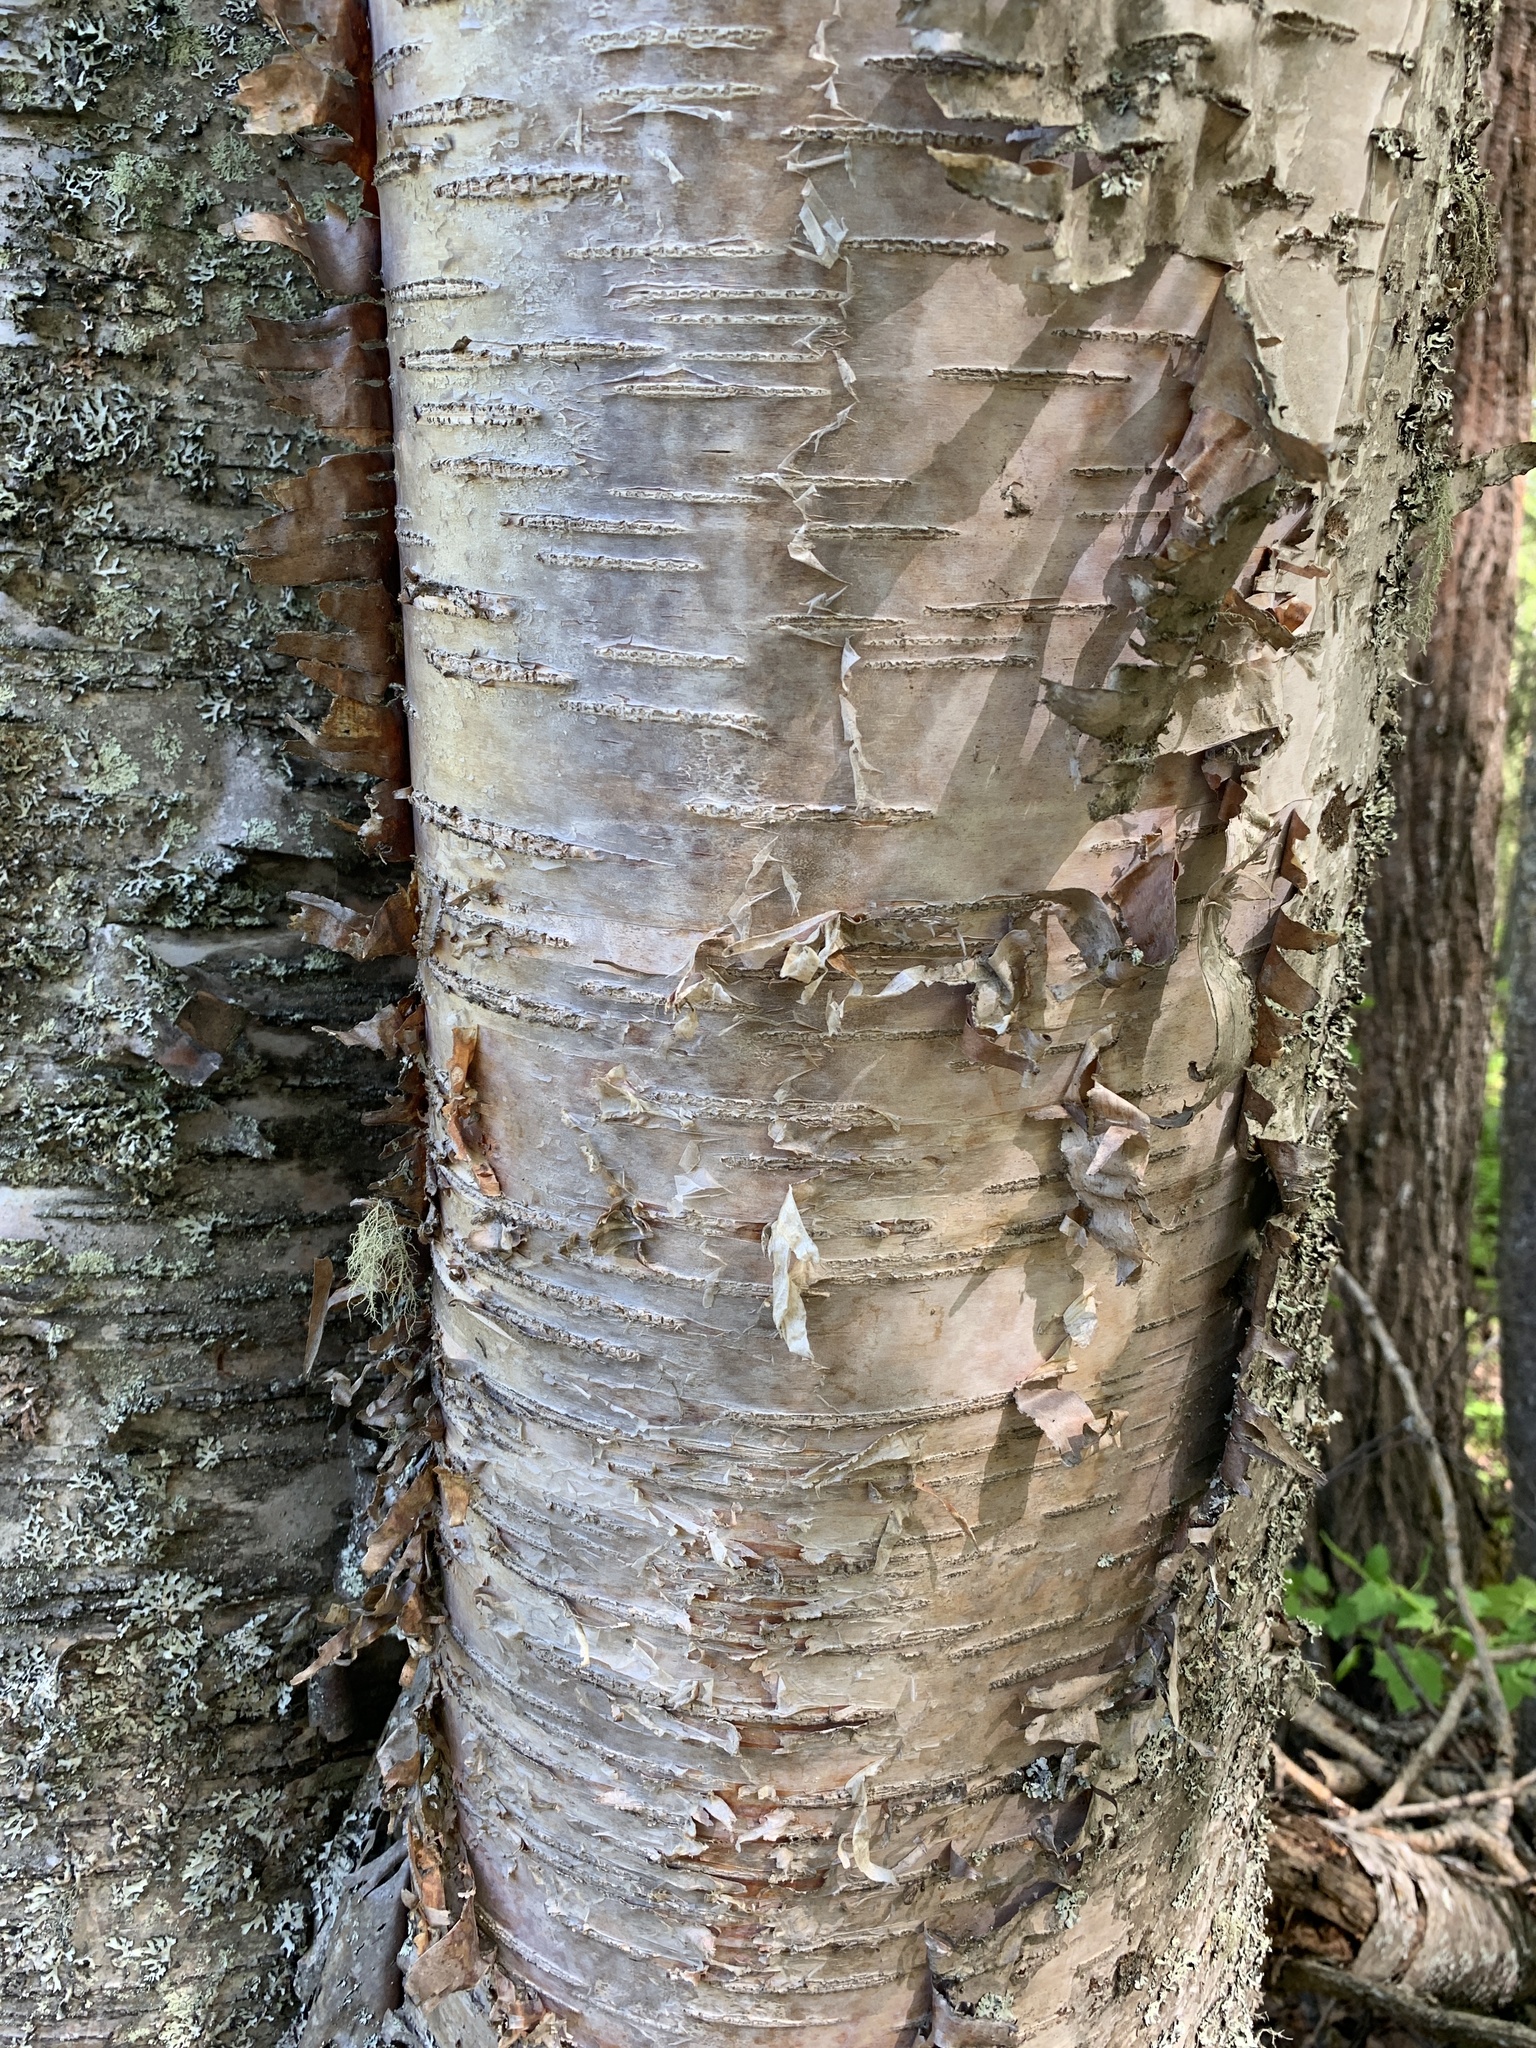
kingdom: Plantae
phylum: Tracheophyta
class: Magnoliopsida
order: Fagales
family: Betulaceae
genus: Betula
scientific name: Betula papyrifera
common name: Paper birch
